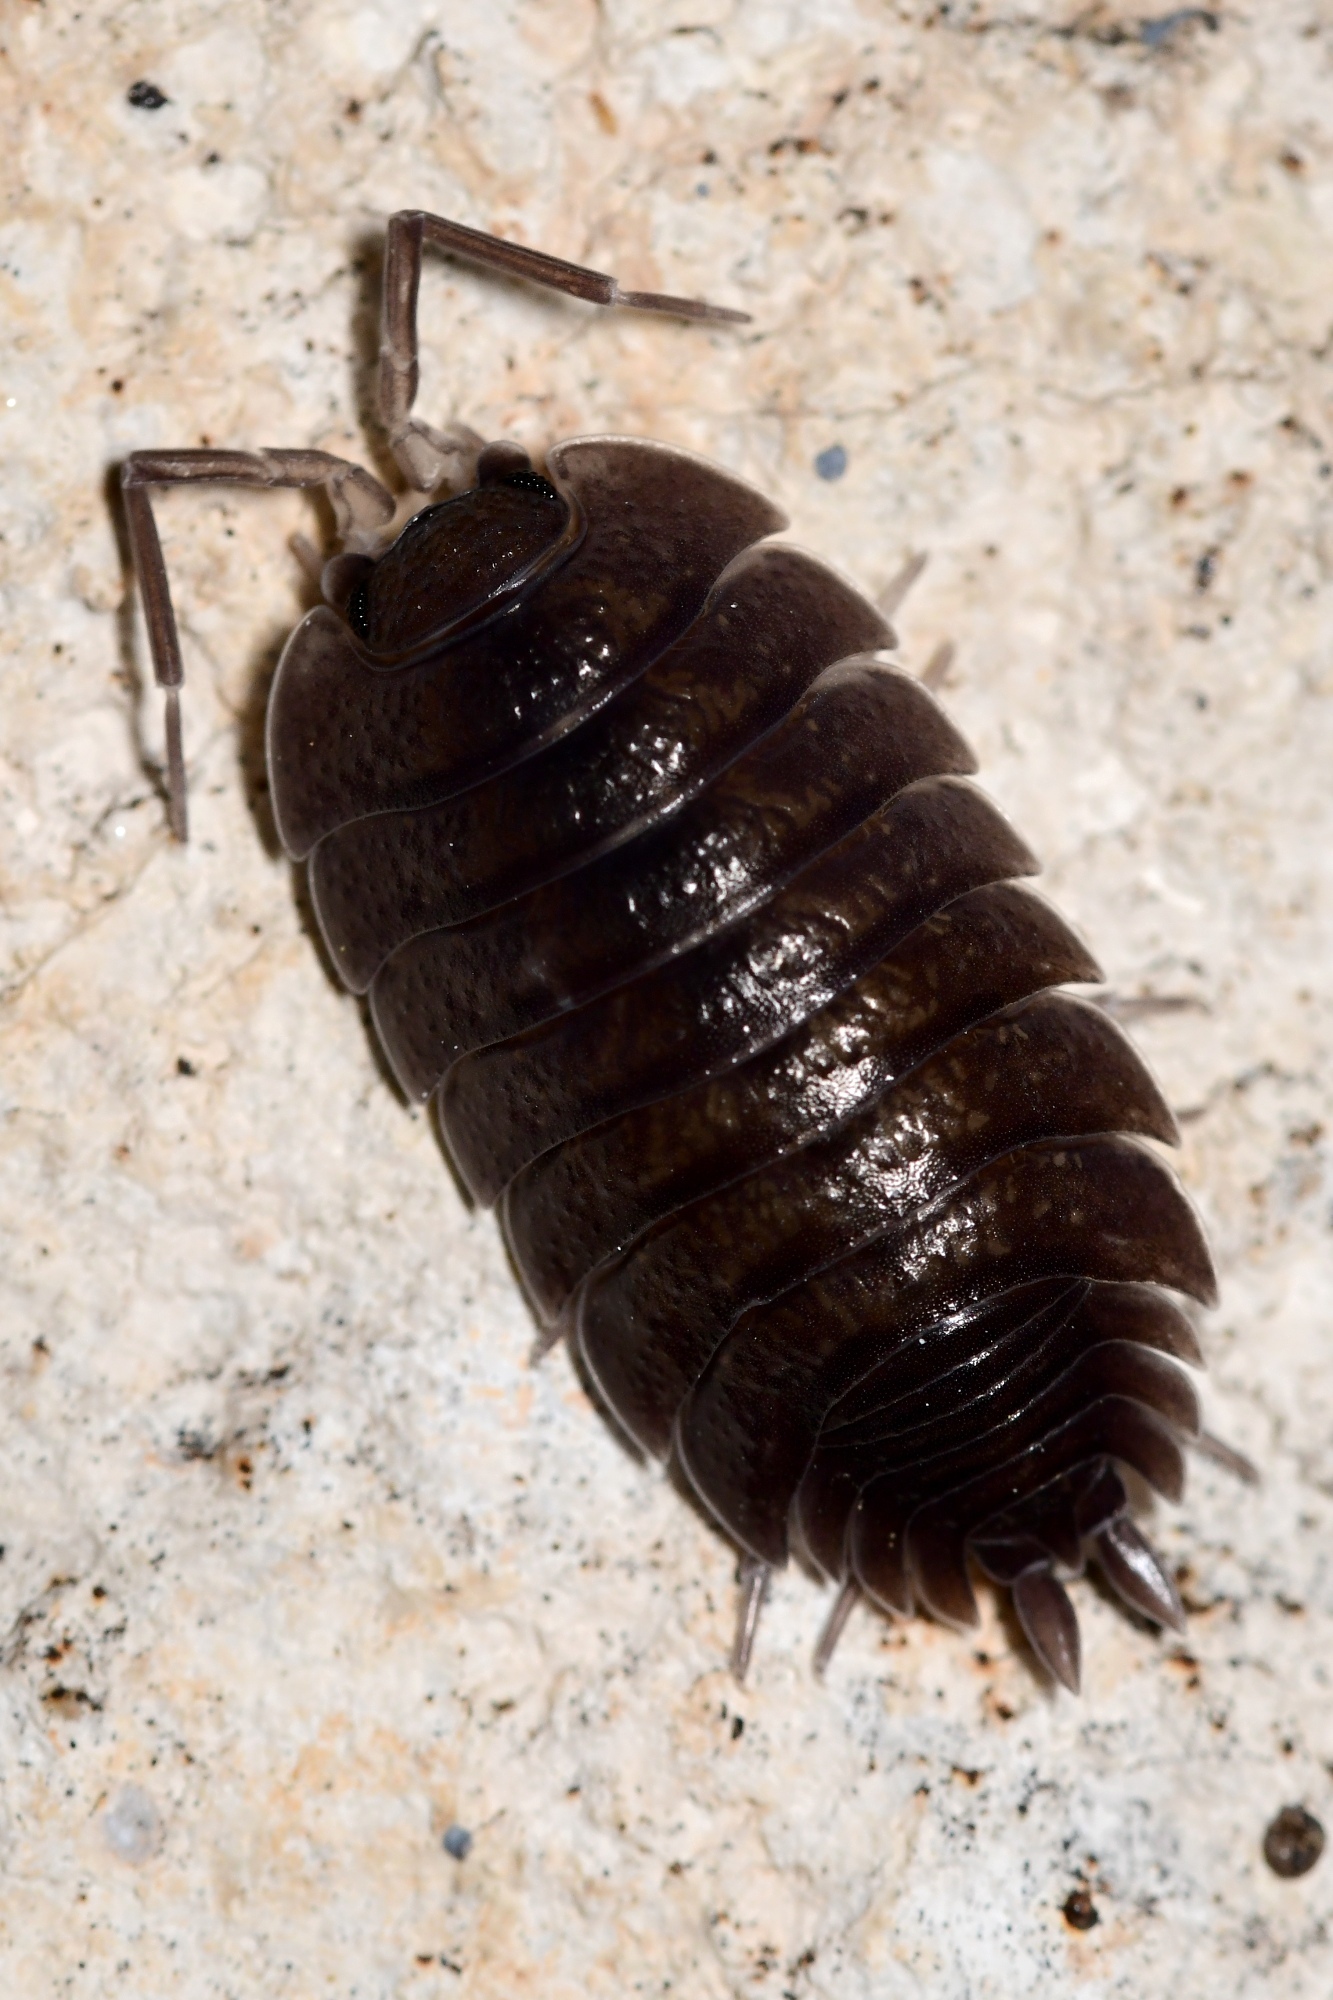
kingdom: Animalia
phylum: Arthropoda
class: Malacostraca
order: Isopoda
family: Porcellionidae
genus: Porcellio
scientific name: Porcellio obsoletus
